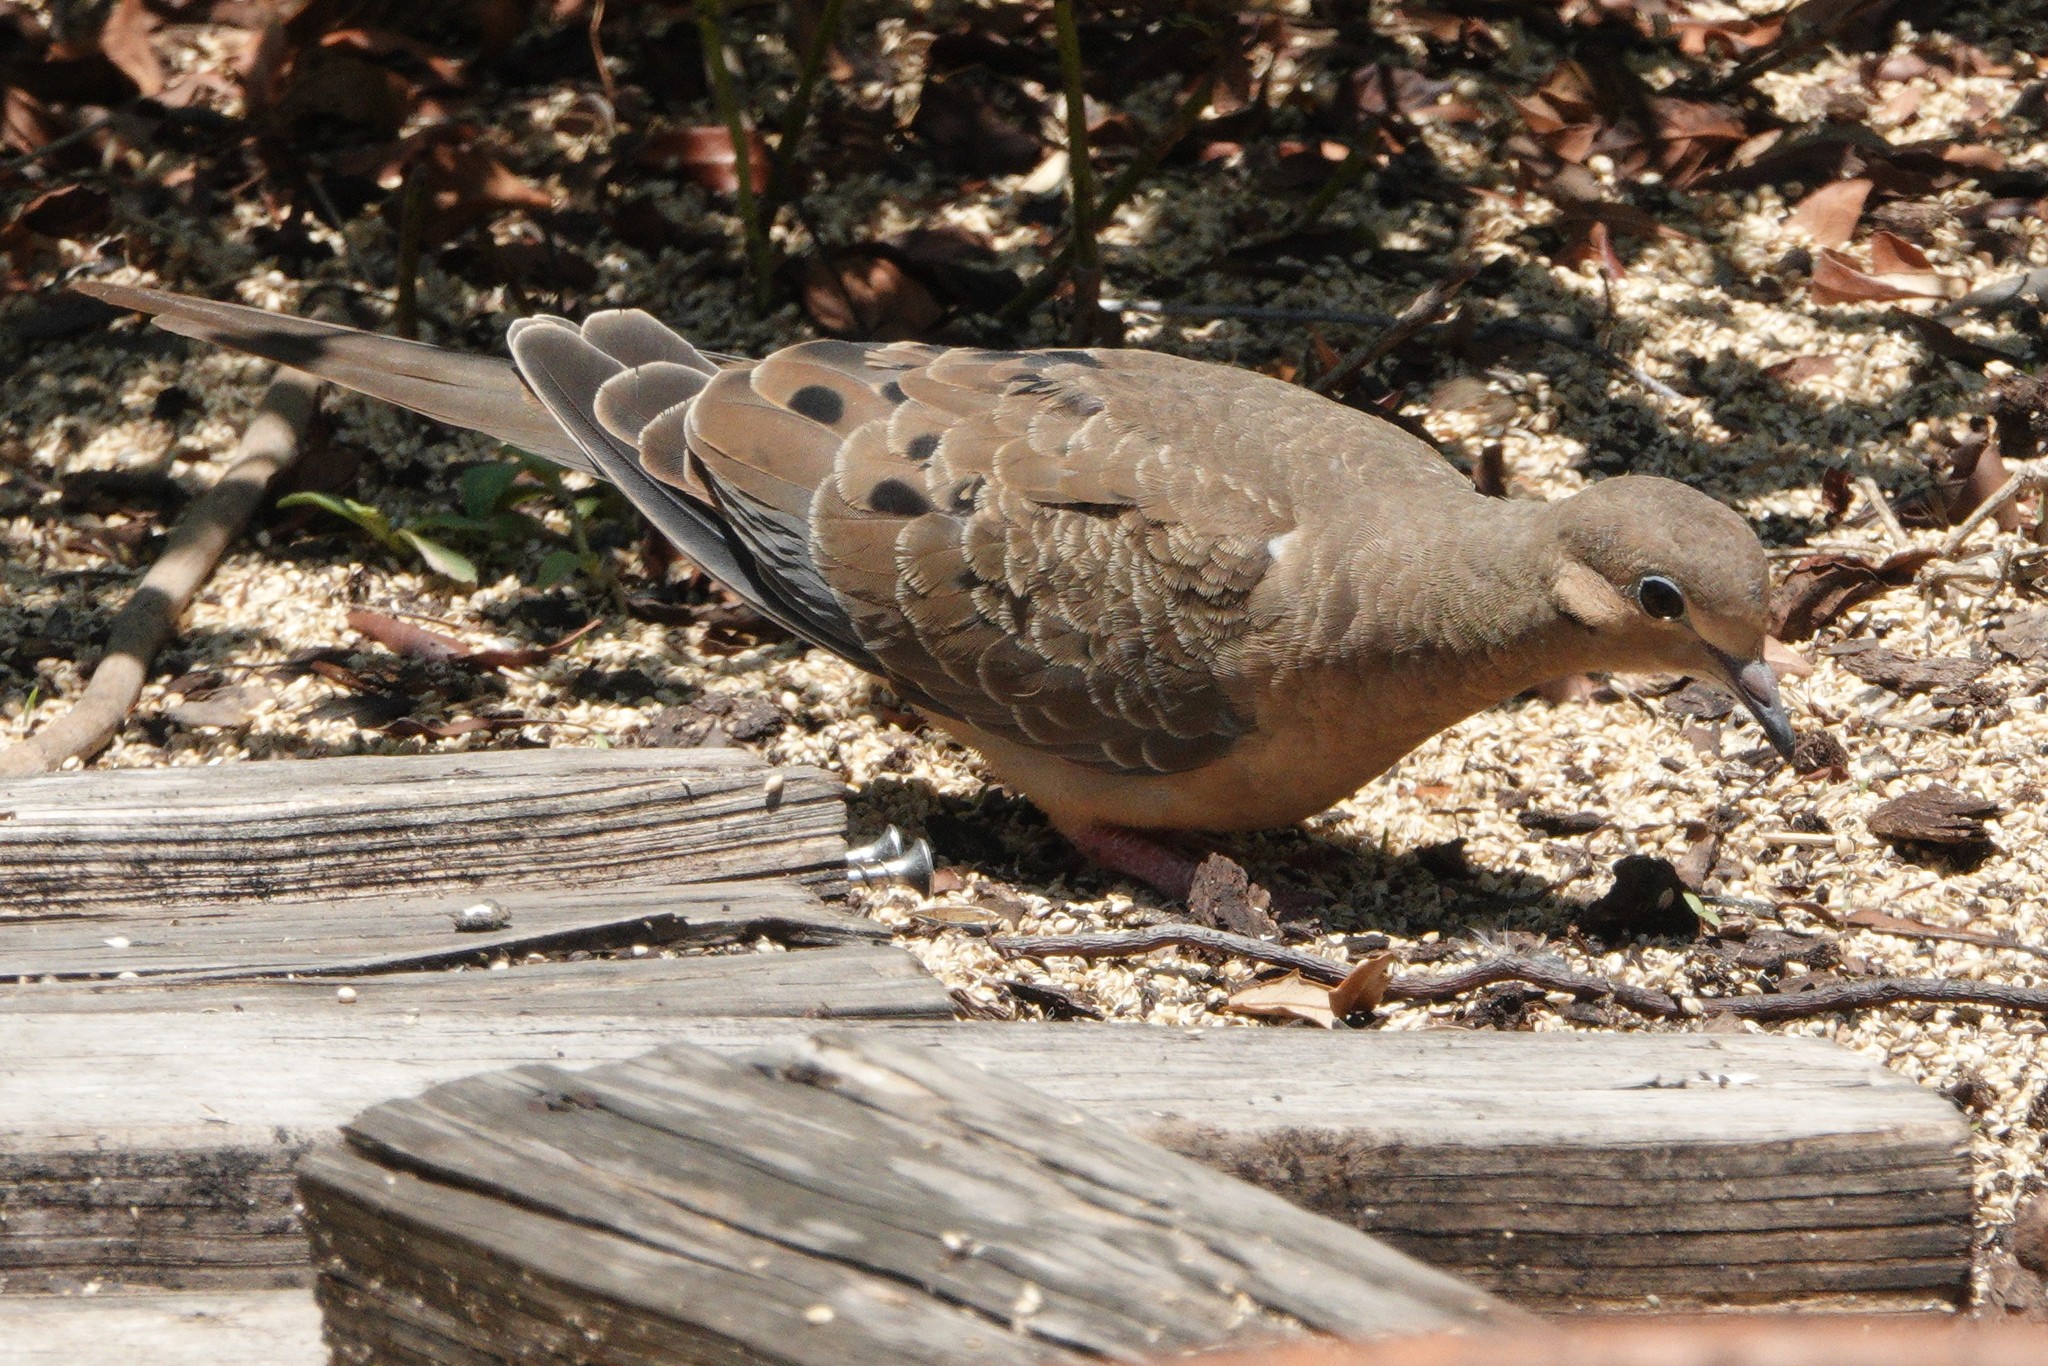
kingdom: Animalia
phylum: Chordata
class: Aves
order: Columbiformes
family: Columbidae
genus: Zenaida
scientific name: Zenaida macroura
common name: Mourning dove
